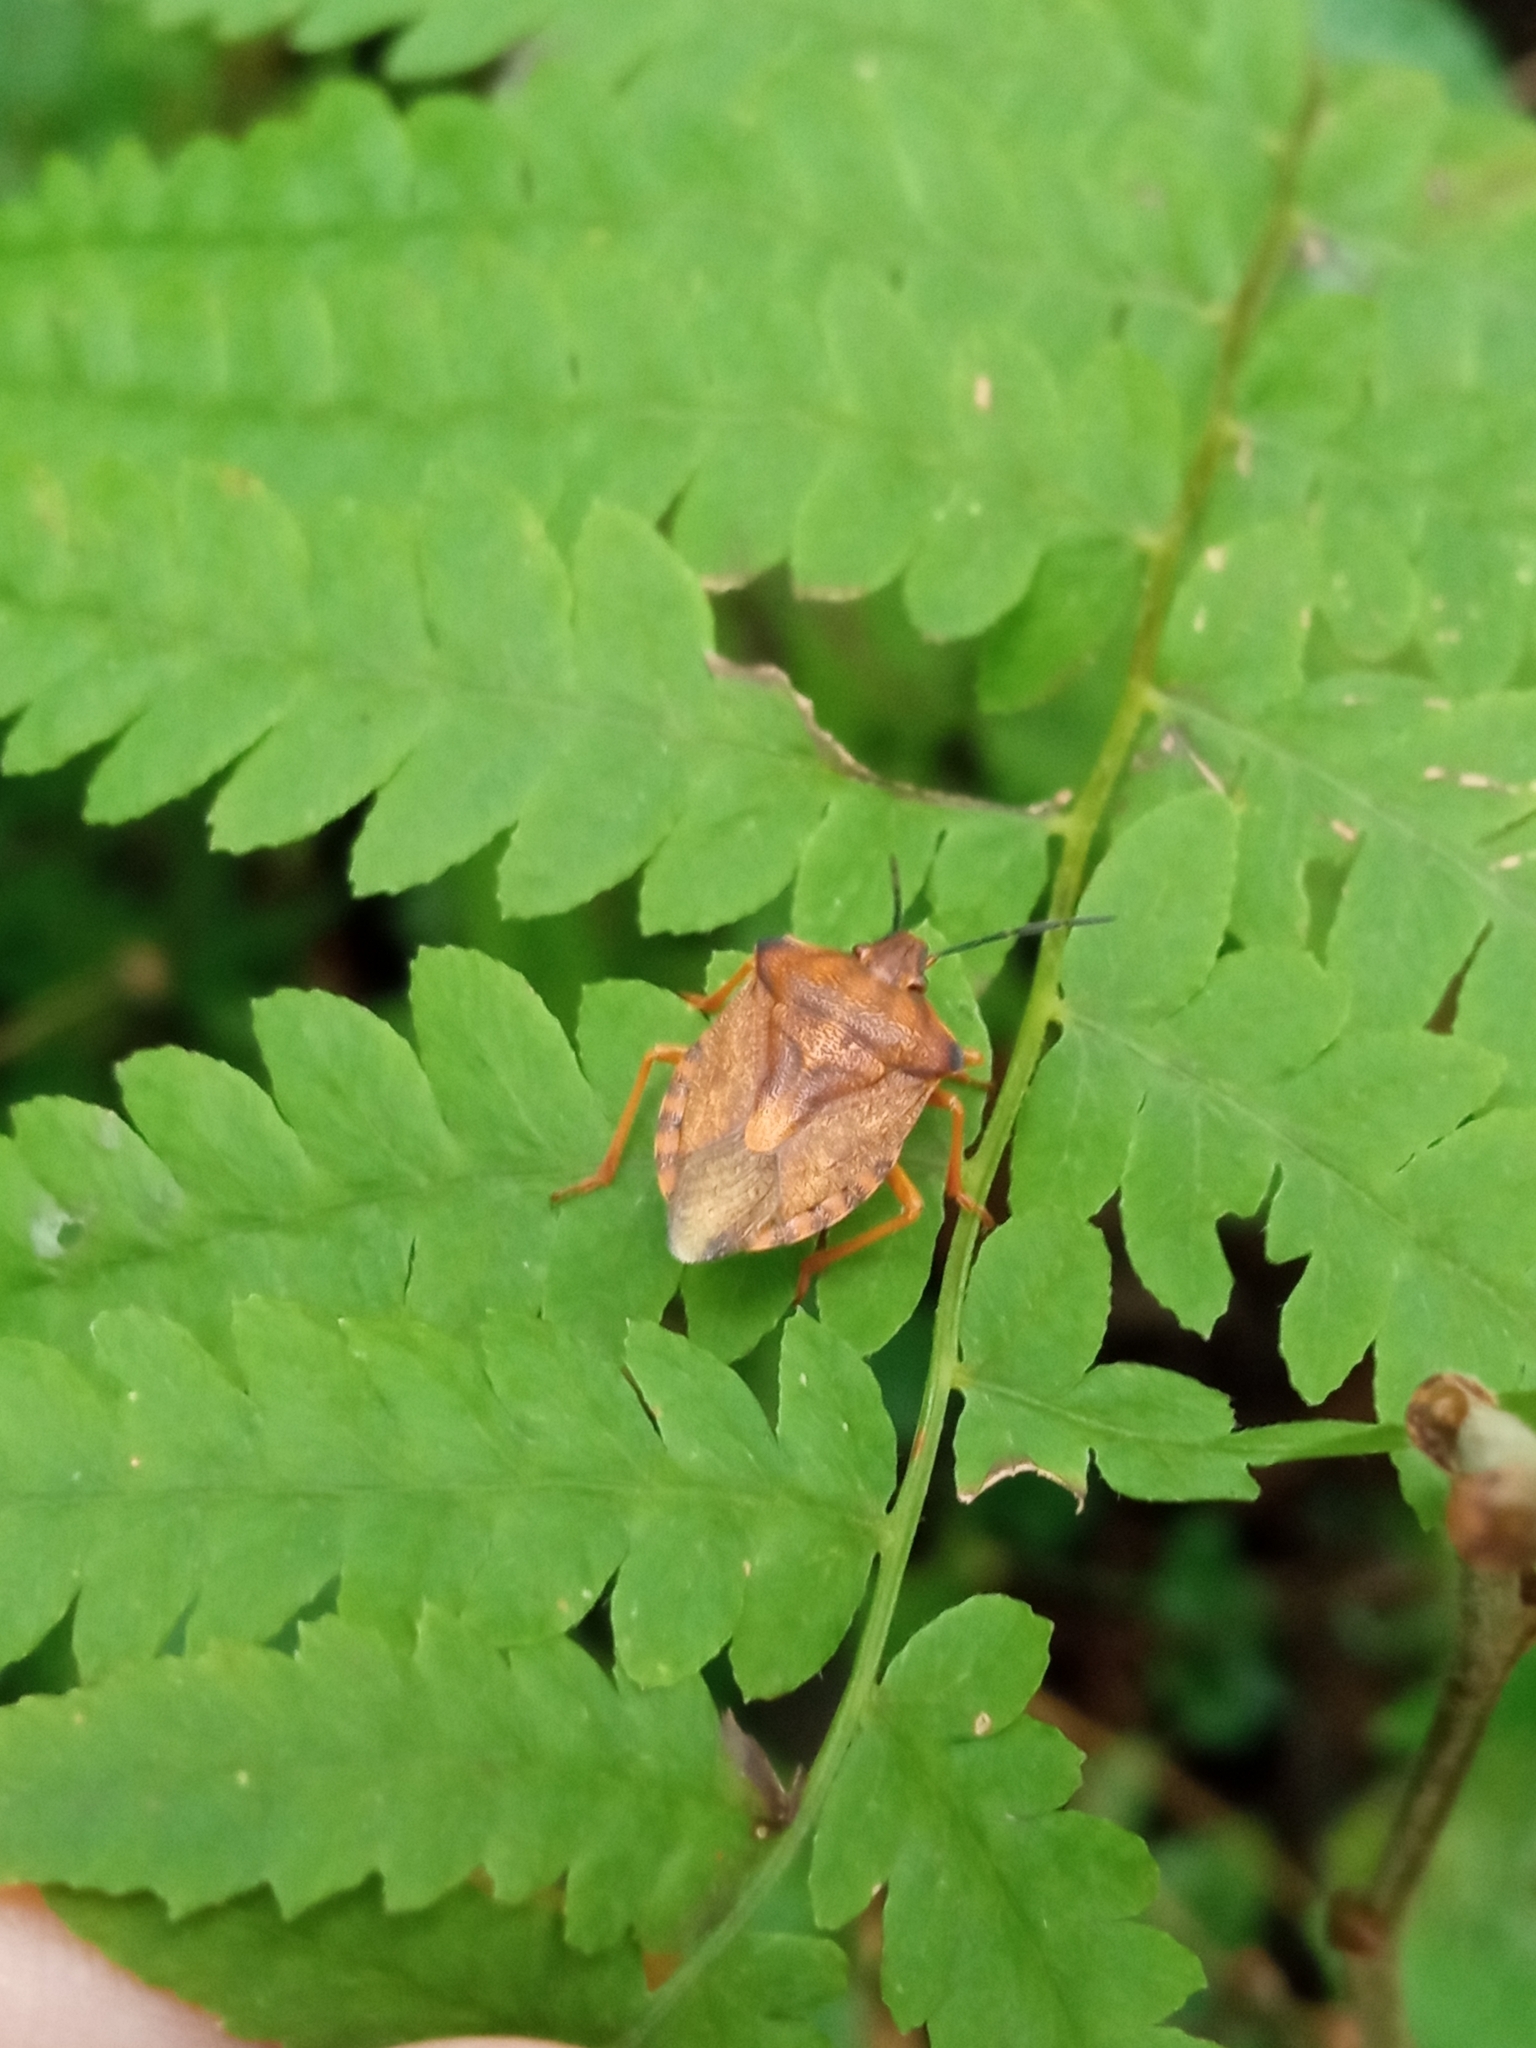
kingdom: Animalia
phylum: Arthropoda
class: Insecta
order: Hemiptera
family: Pentatomidae
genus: Carpocoris
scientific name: Carpocoris purpureipennis
